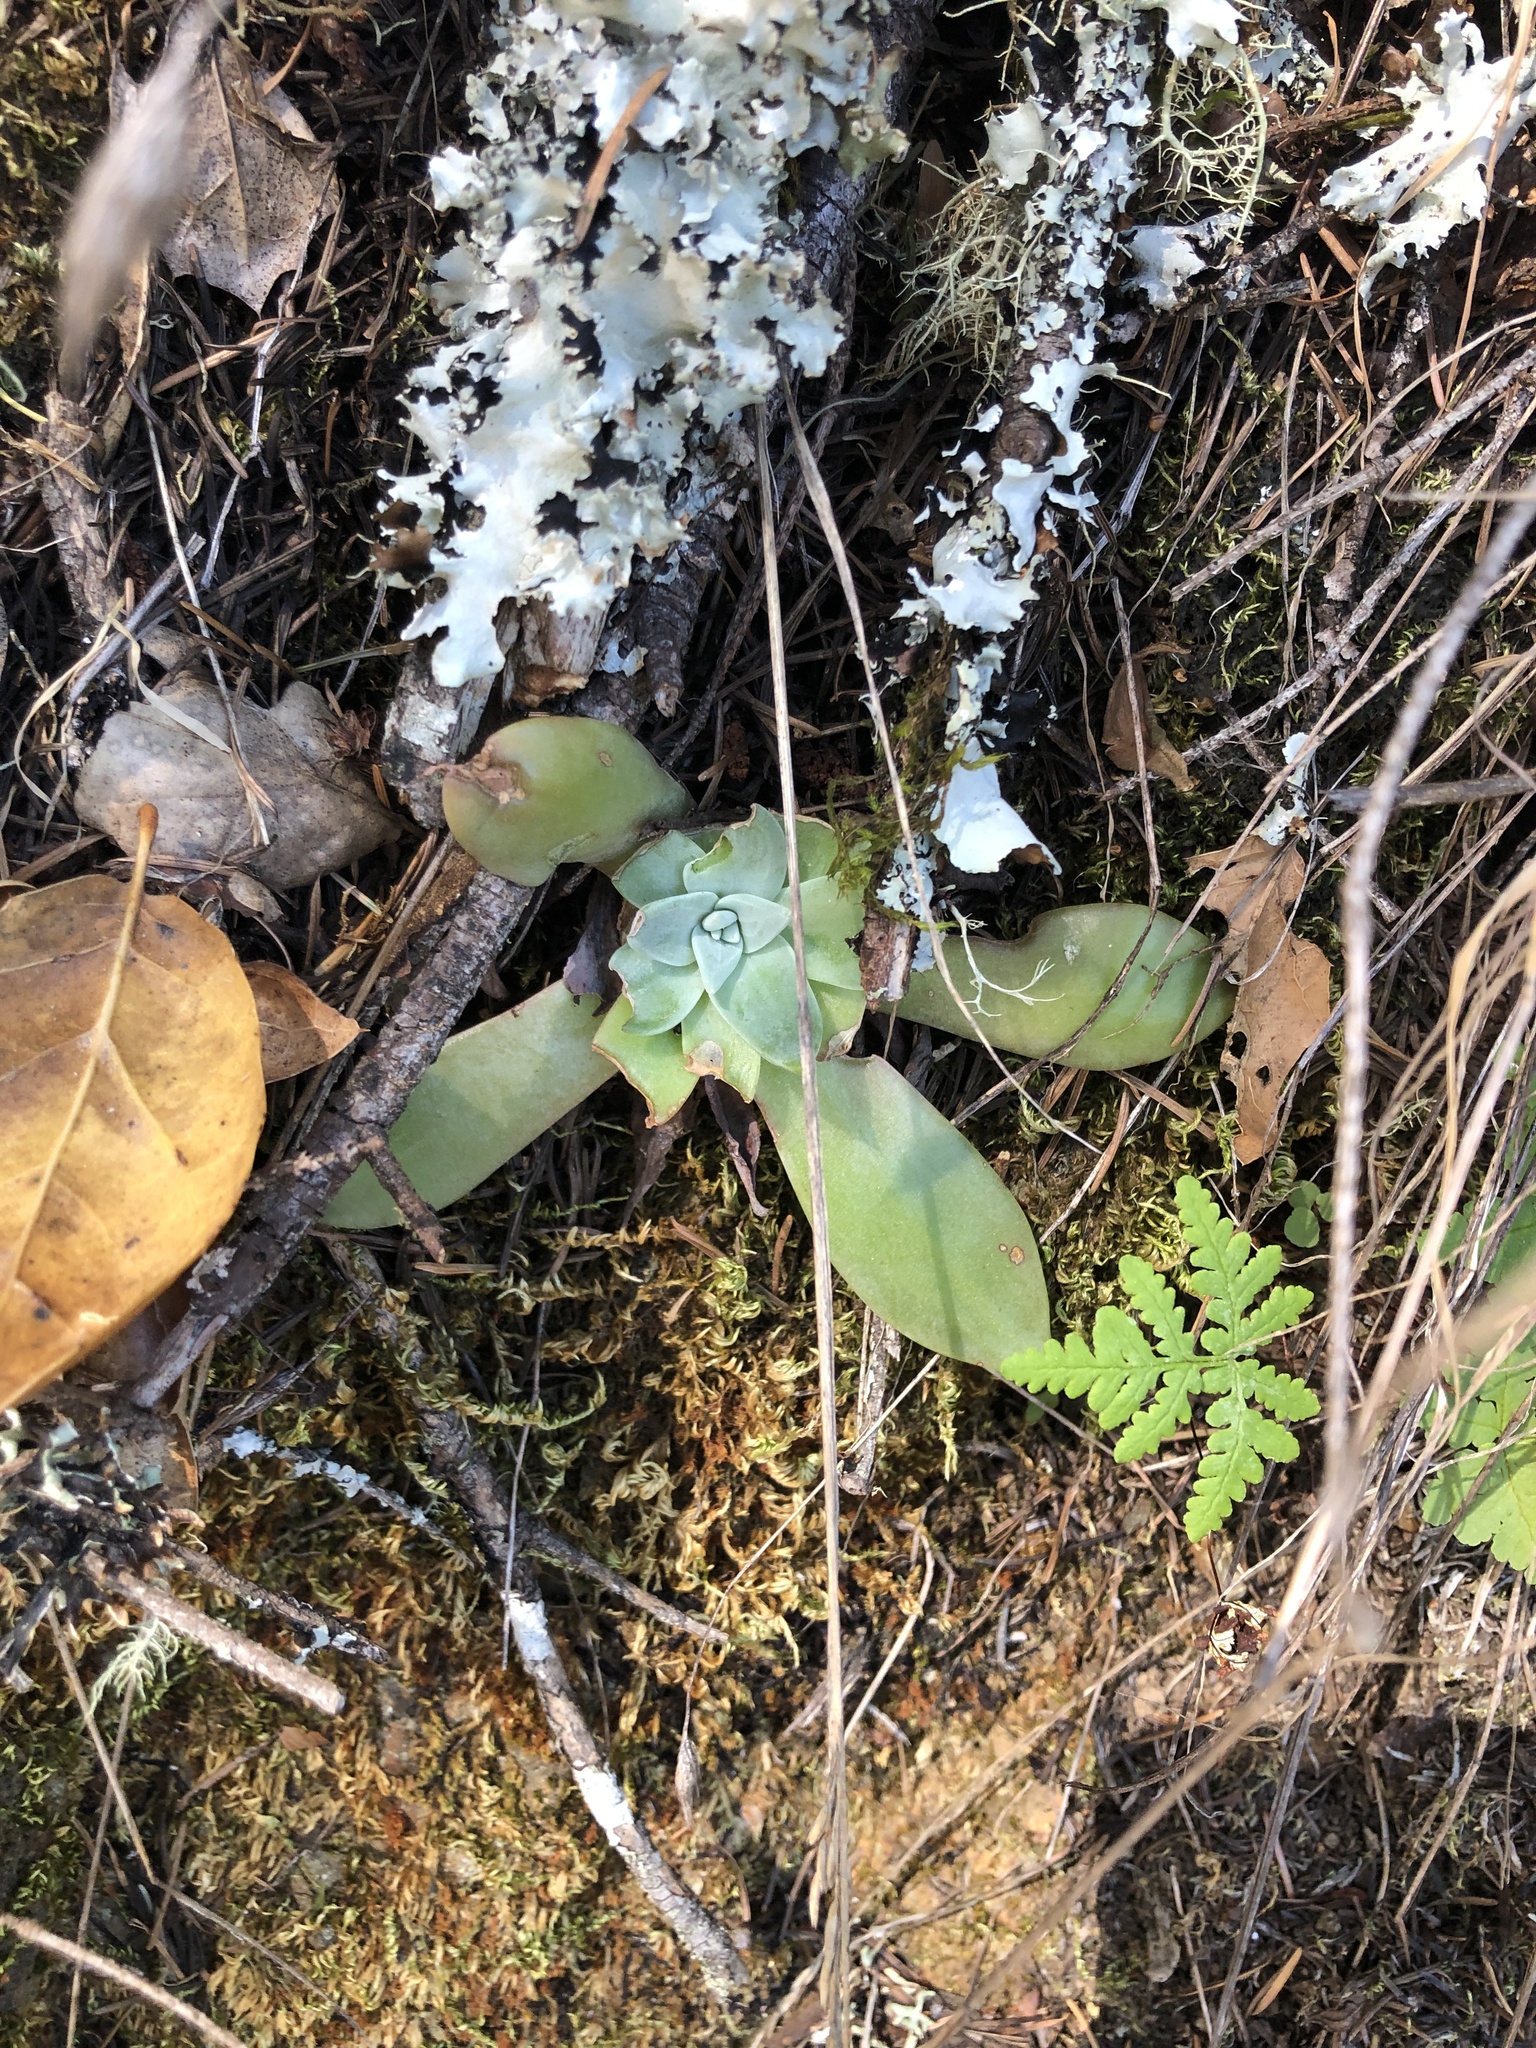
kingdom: Plantae
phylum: Tracheophyta
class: Magnoliopsida
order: Saxifragales
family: Crassulaceae
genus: Dudleya
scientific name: Dudleya cymosa
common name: Canyon dudleya
